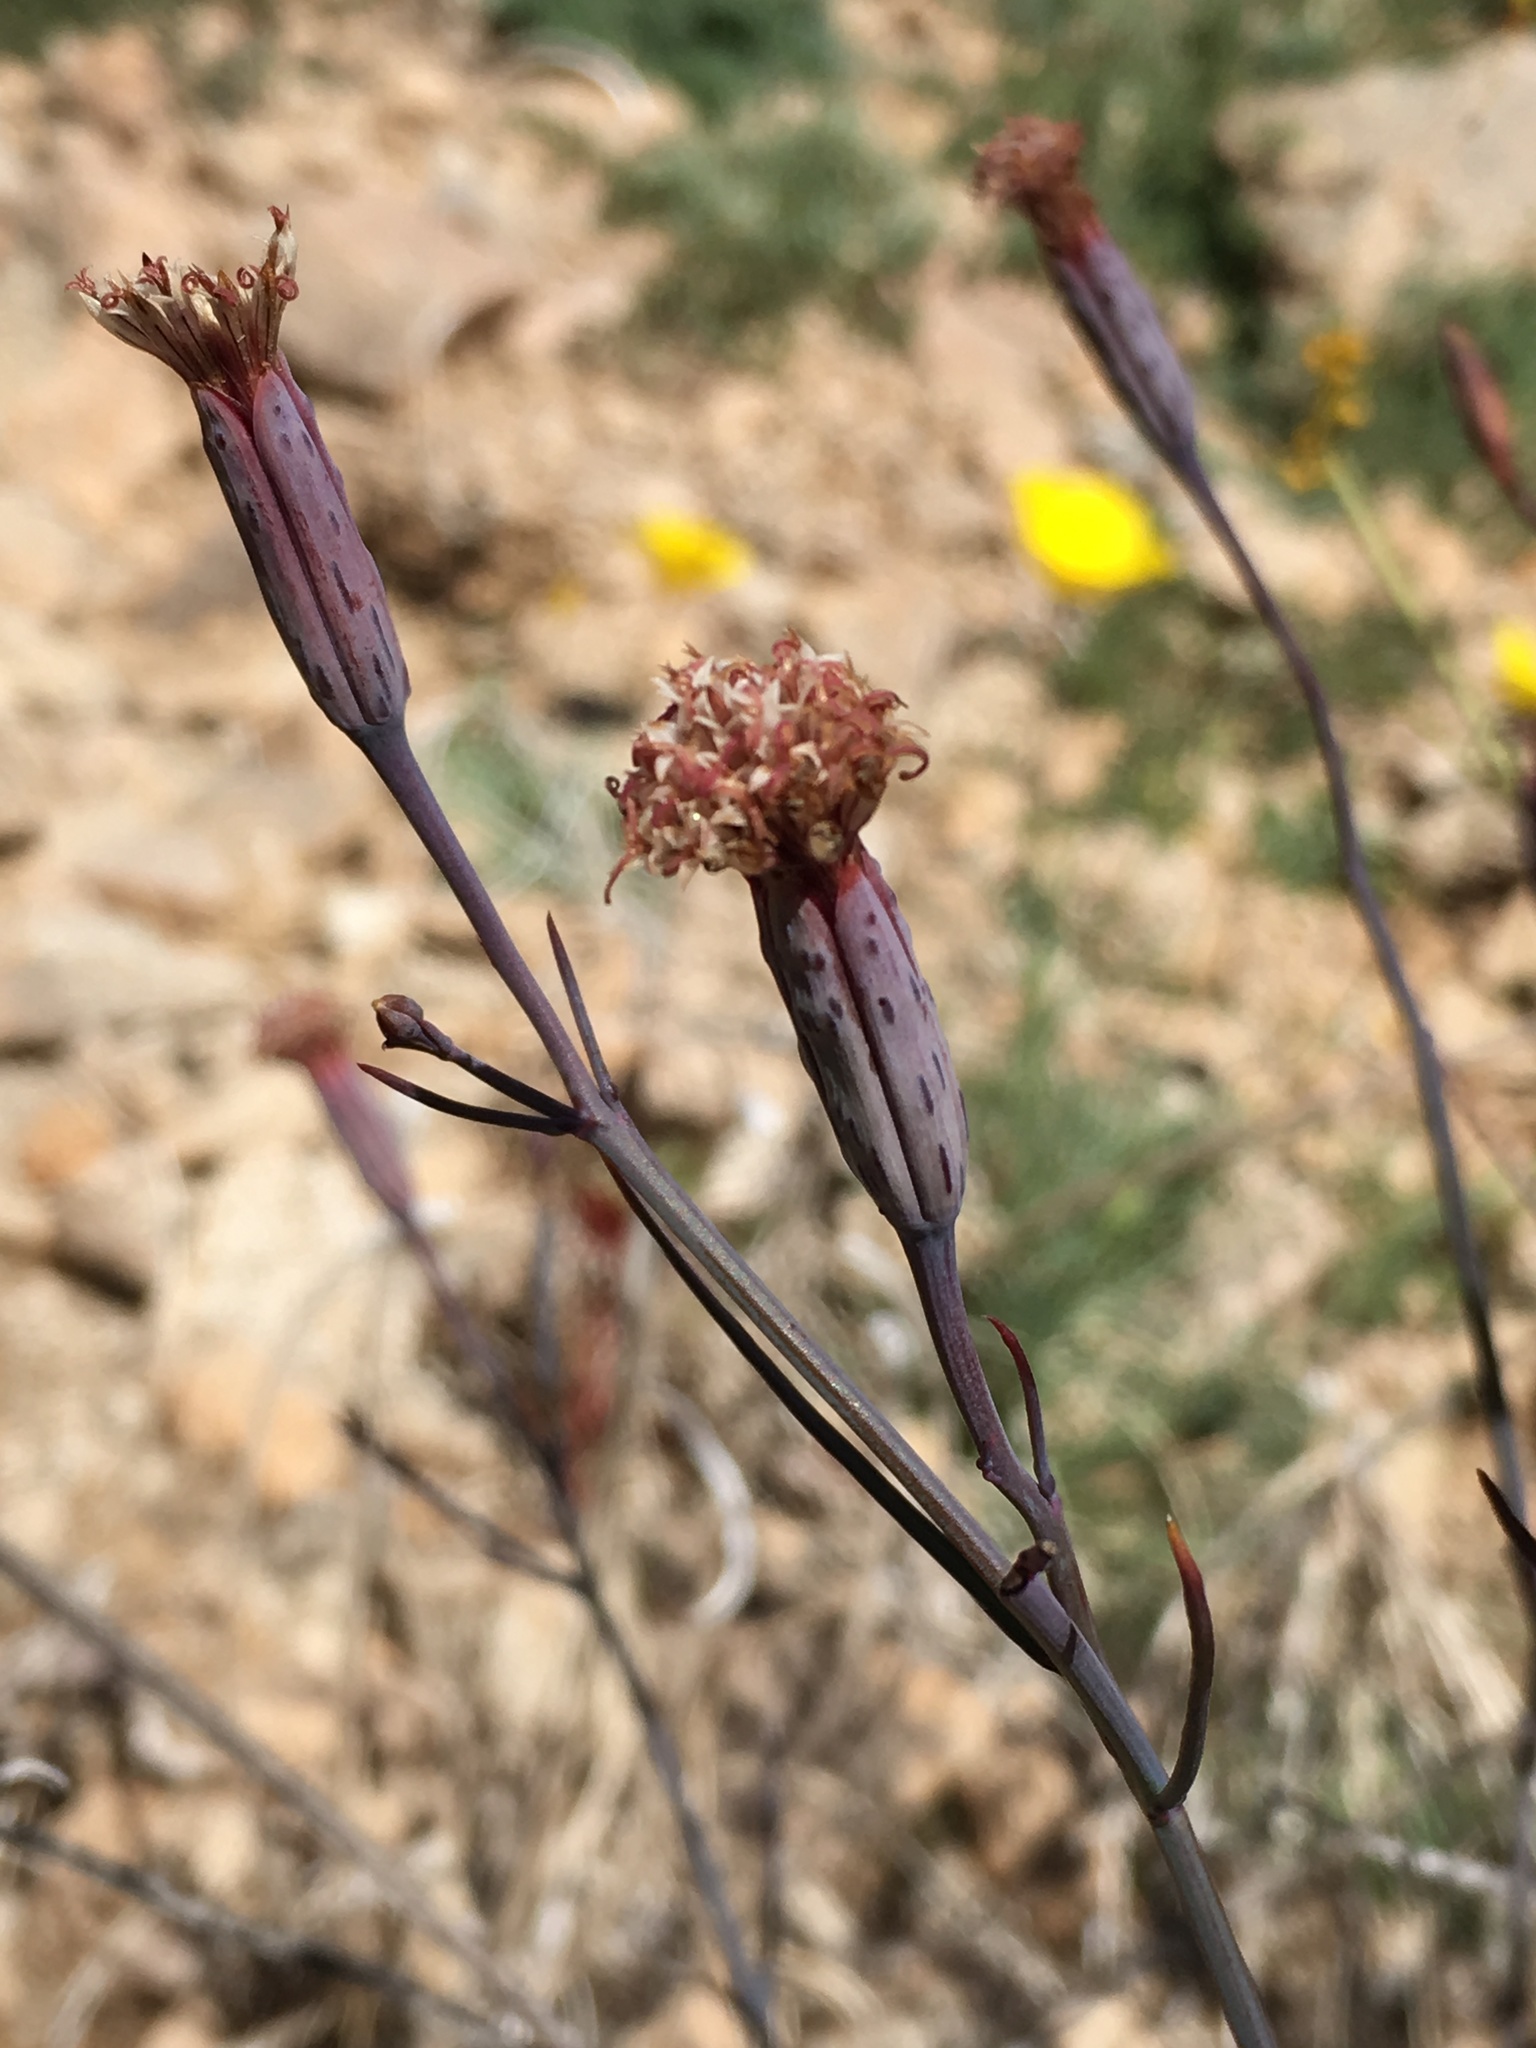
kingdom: Plantae
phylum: Tracheophyta
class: Magnoliopsida
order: Asterales
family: Asteraceae
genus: Porophyllum
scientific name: Porophyllum gracile
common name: Odora
